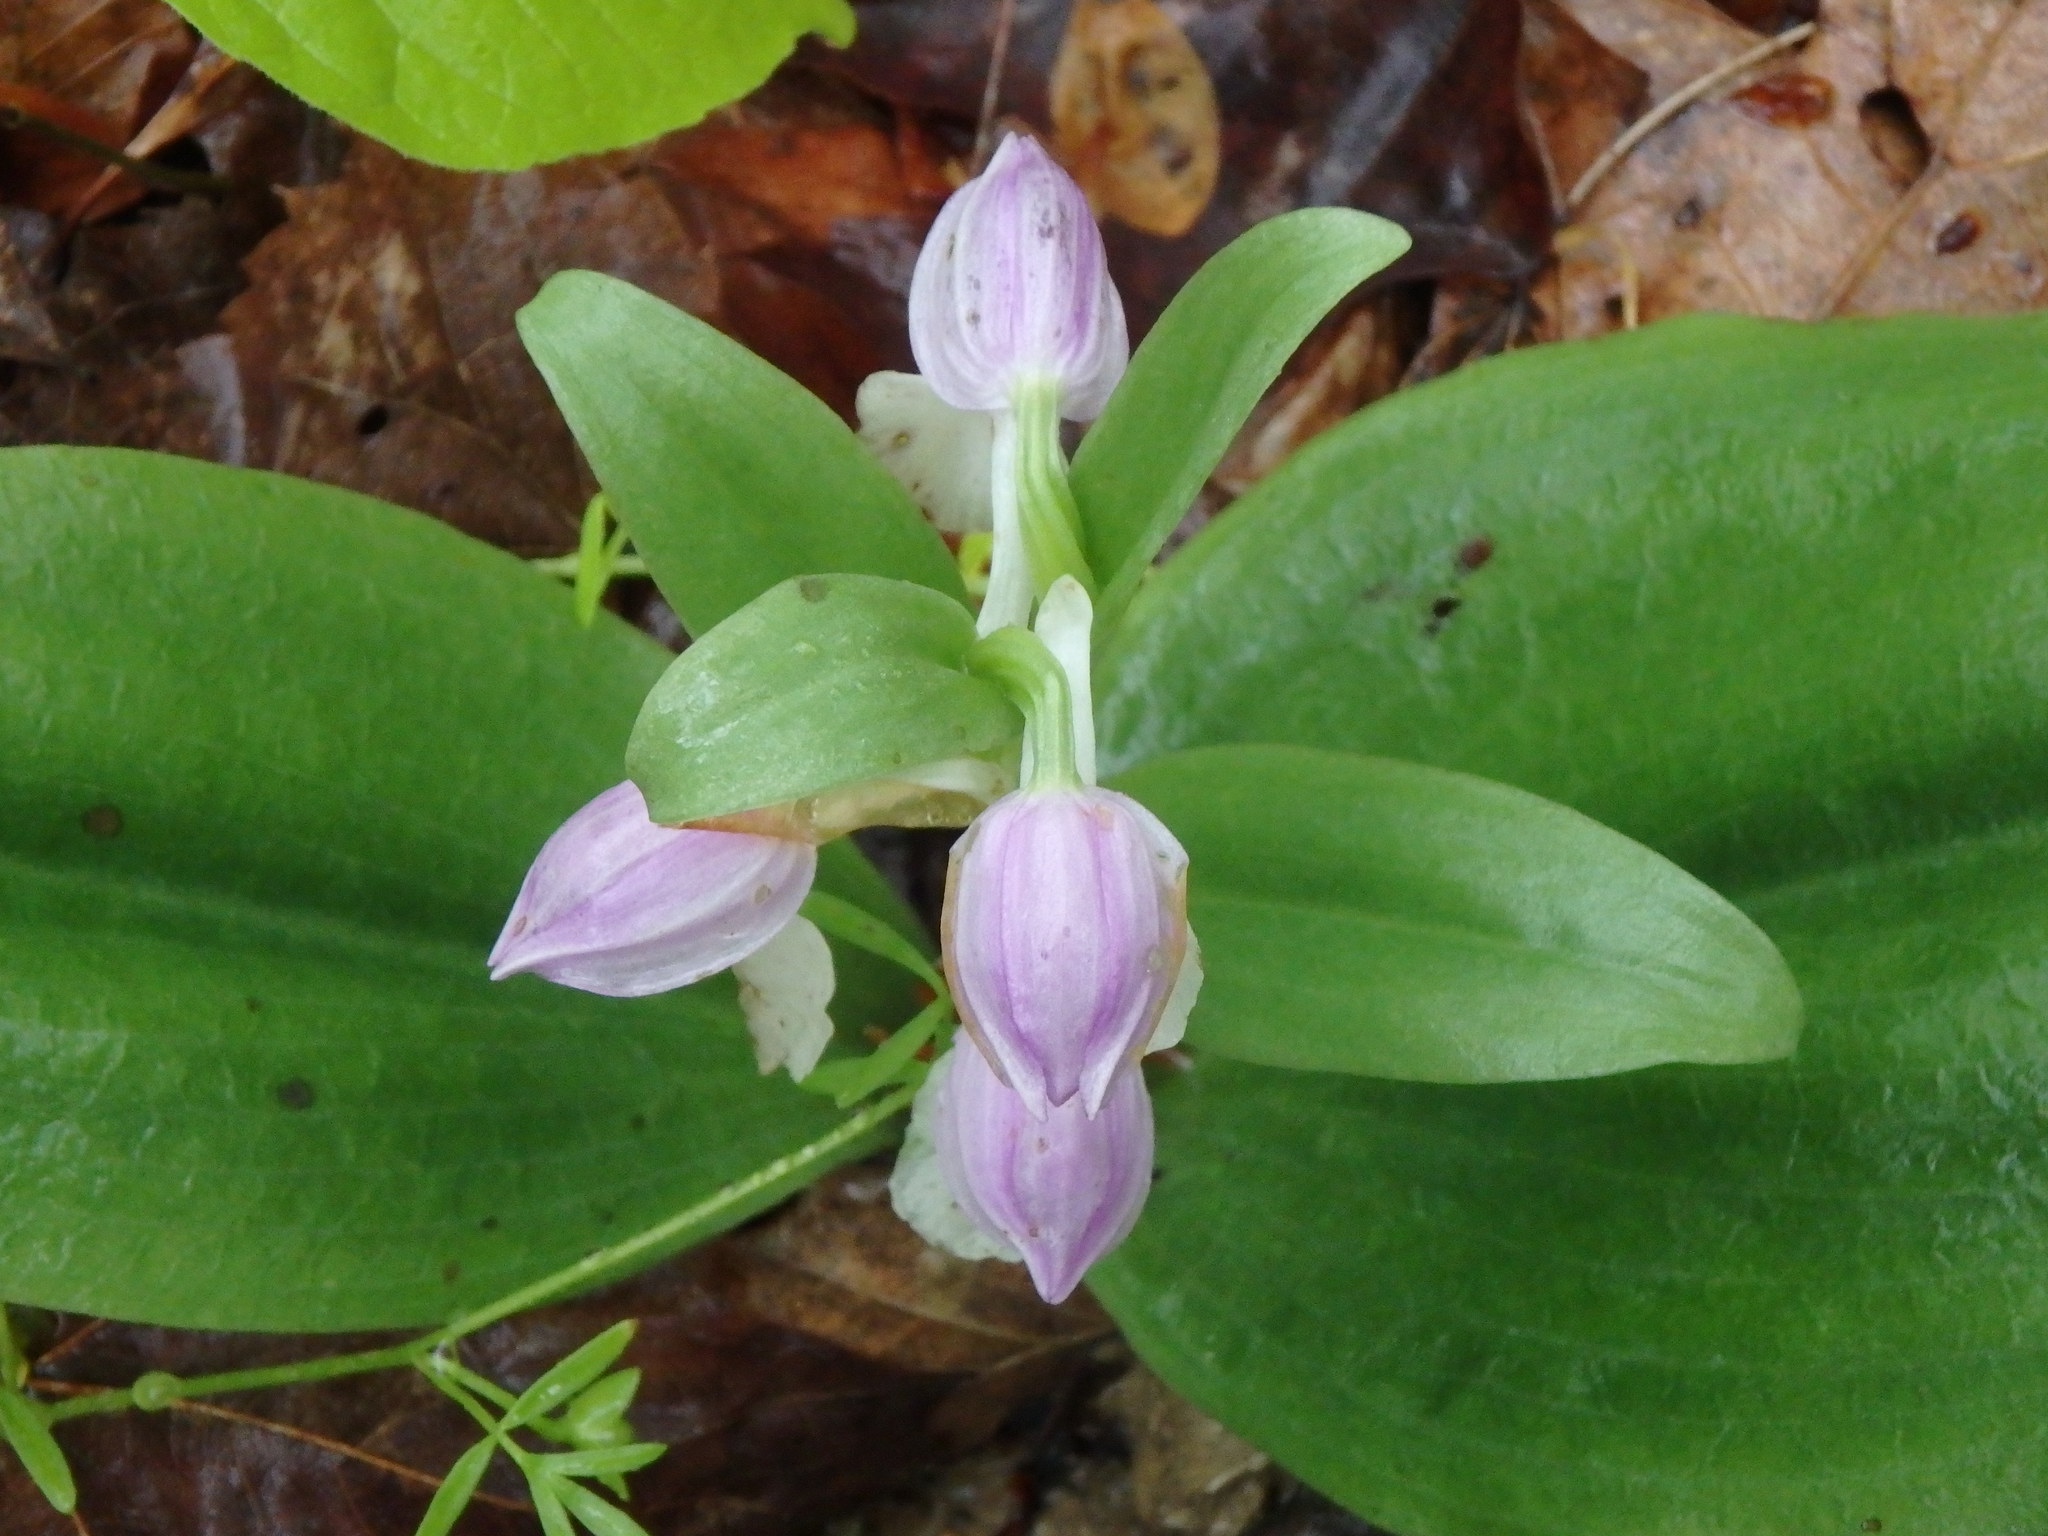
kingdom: Plantae
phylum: Tracheophyta
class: Liliopsida
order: Asparagales
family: Orchidaceae
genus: Galearis
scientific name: Galearis spectabilis
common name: Purple-hooded orchis
